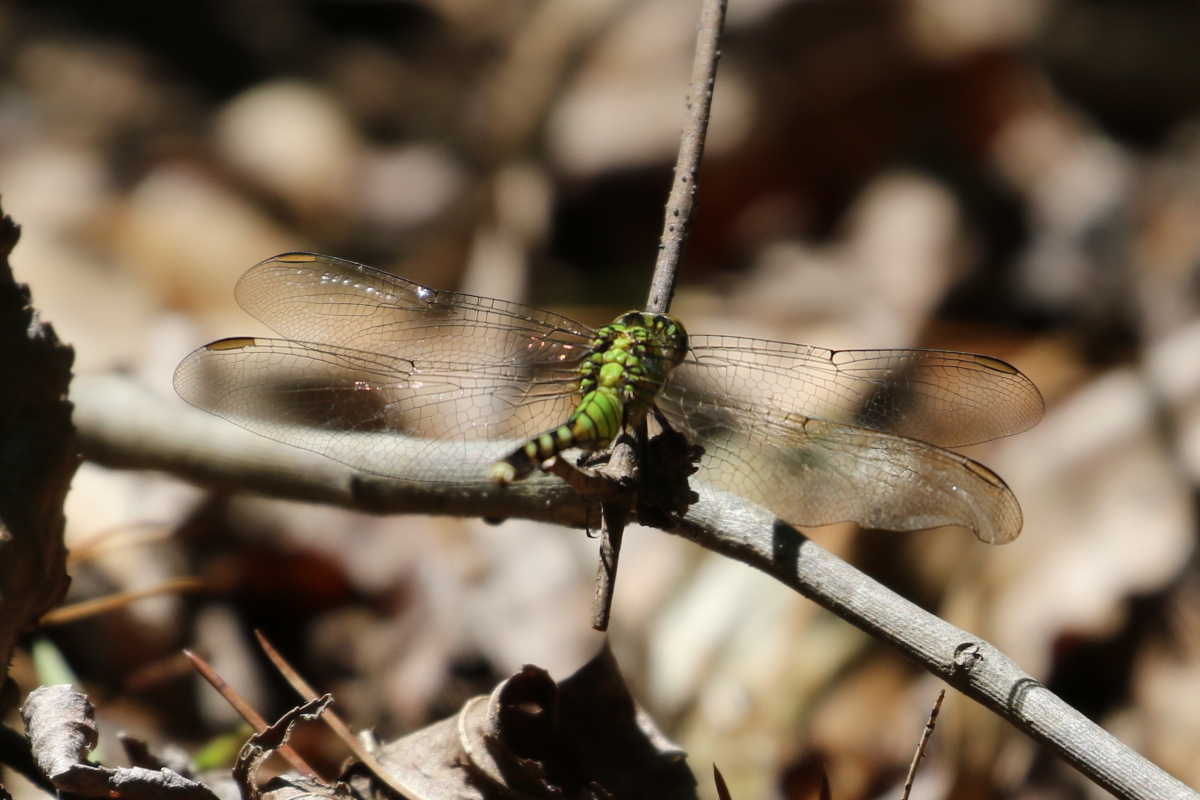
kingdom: Animalia
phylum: Arthropoda
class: Insecta
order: Odonata
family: Libellulidae
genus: Erythemis
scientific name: Erythemis simplicicollis
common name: Eastern pondhawk
